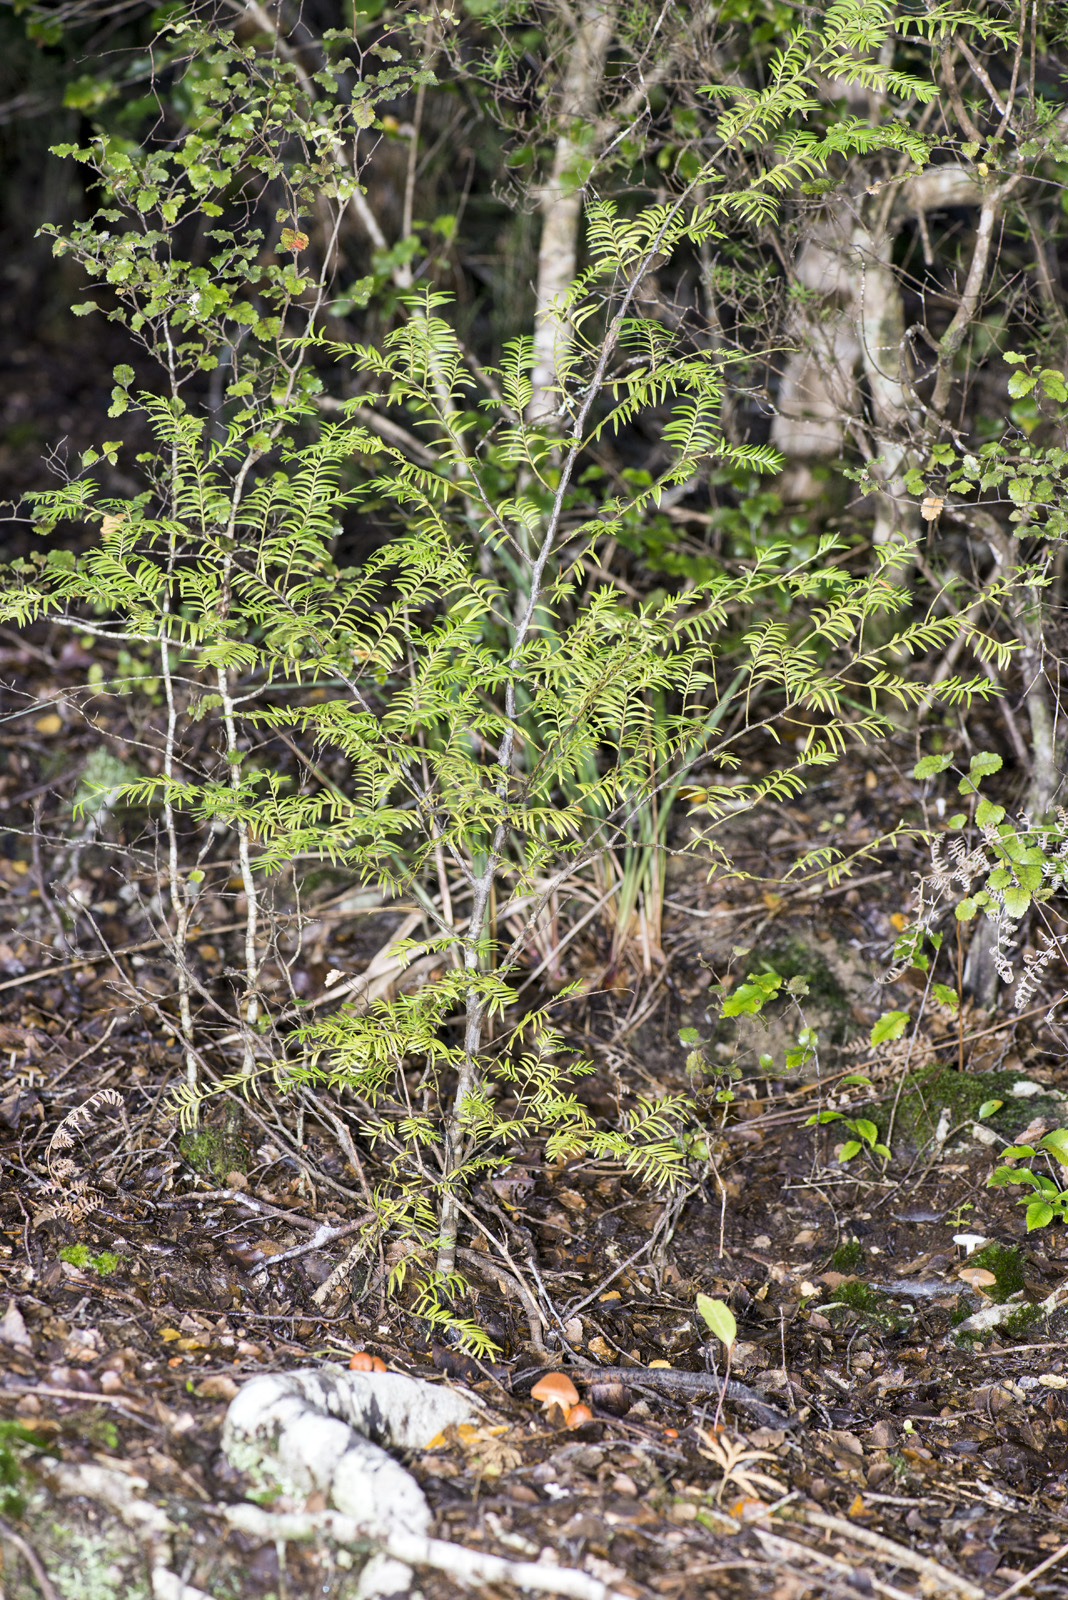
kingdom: Plantae
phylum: Tracheophyta
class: Pinopsida
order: Pinales
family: Podocarpaceae
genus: Prumnopitys
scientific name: Prumnopitys ferruginea
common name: Brown pine
